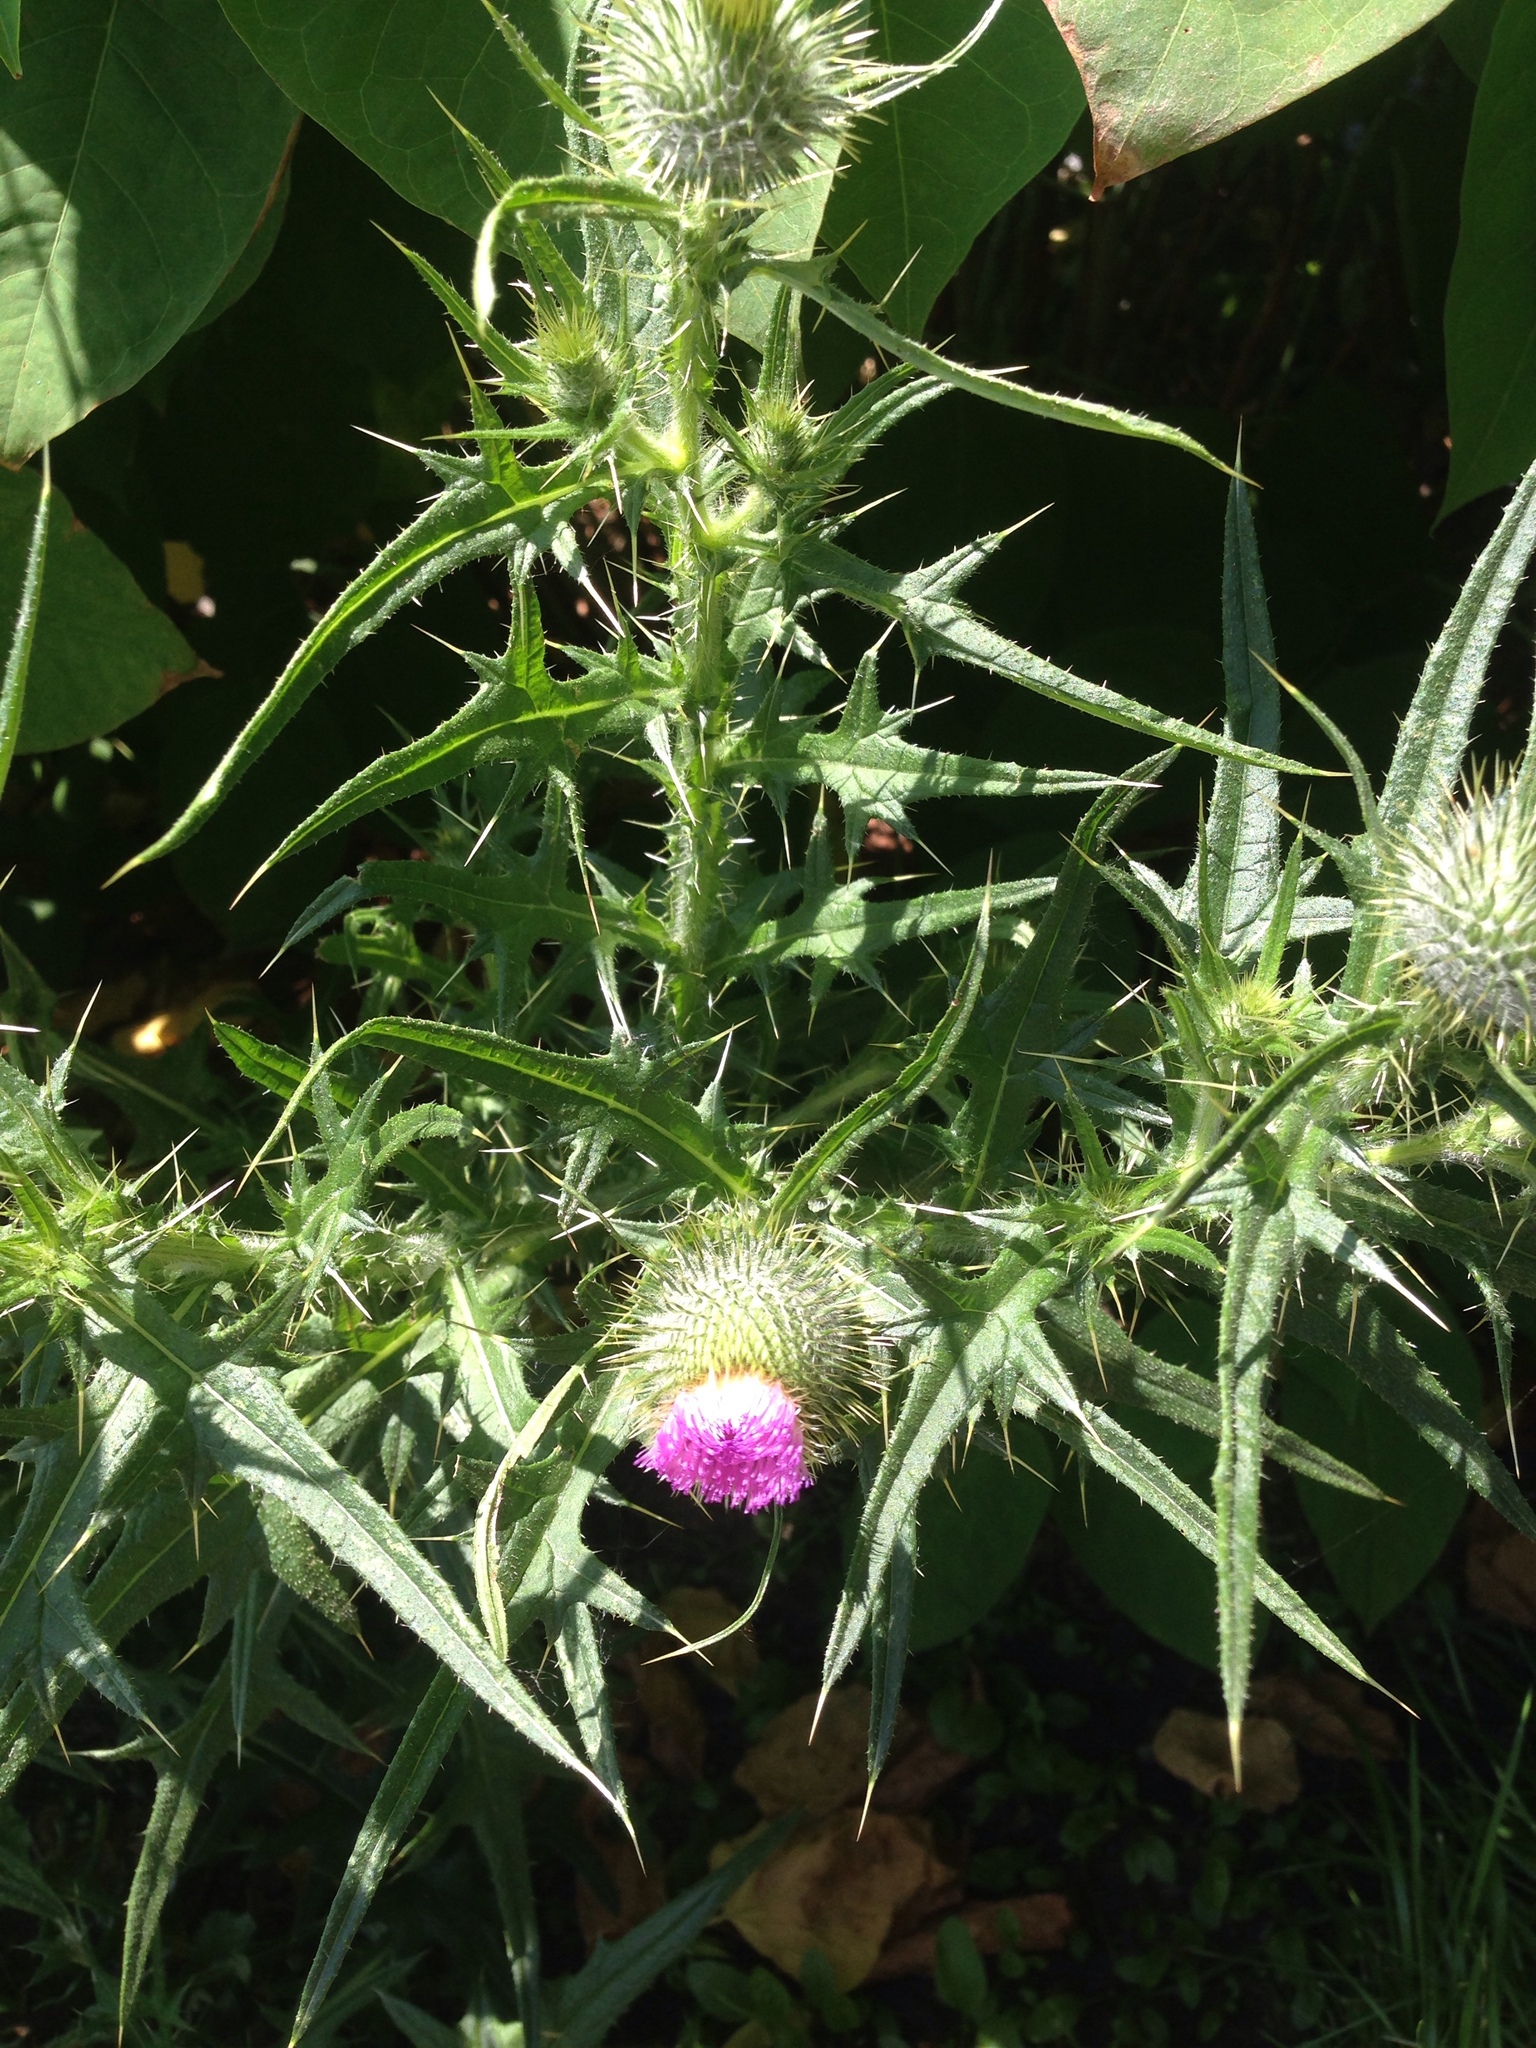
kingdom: Plantae
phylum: Tracheophyta
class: Magnoliopsida
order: Asterales
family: Asteraceae
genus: Cirsium
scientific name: Cirsium vulgare
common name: Bull thistle
